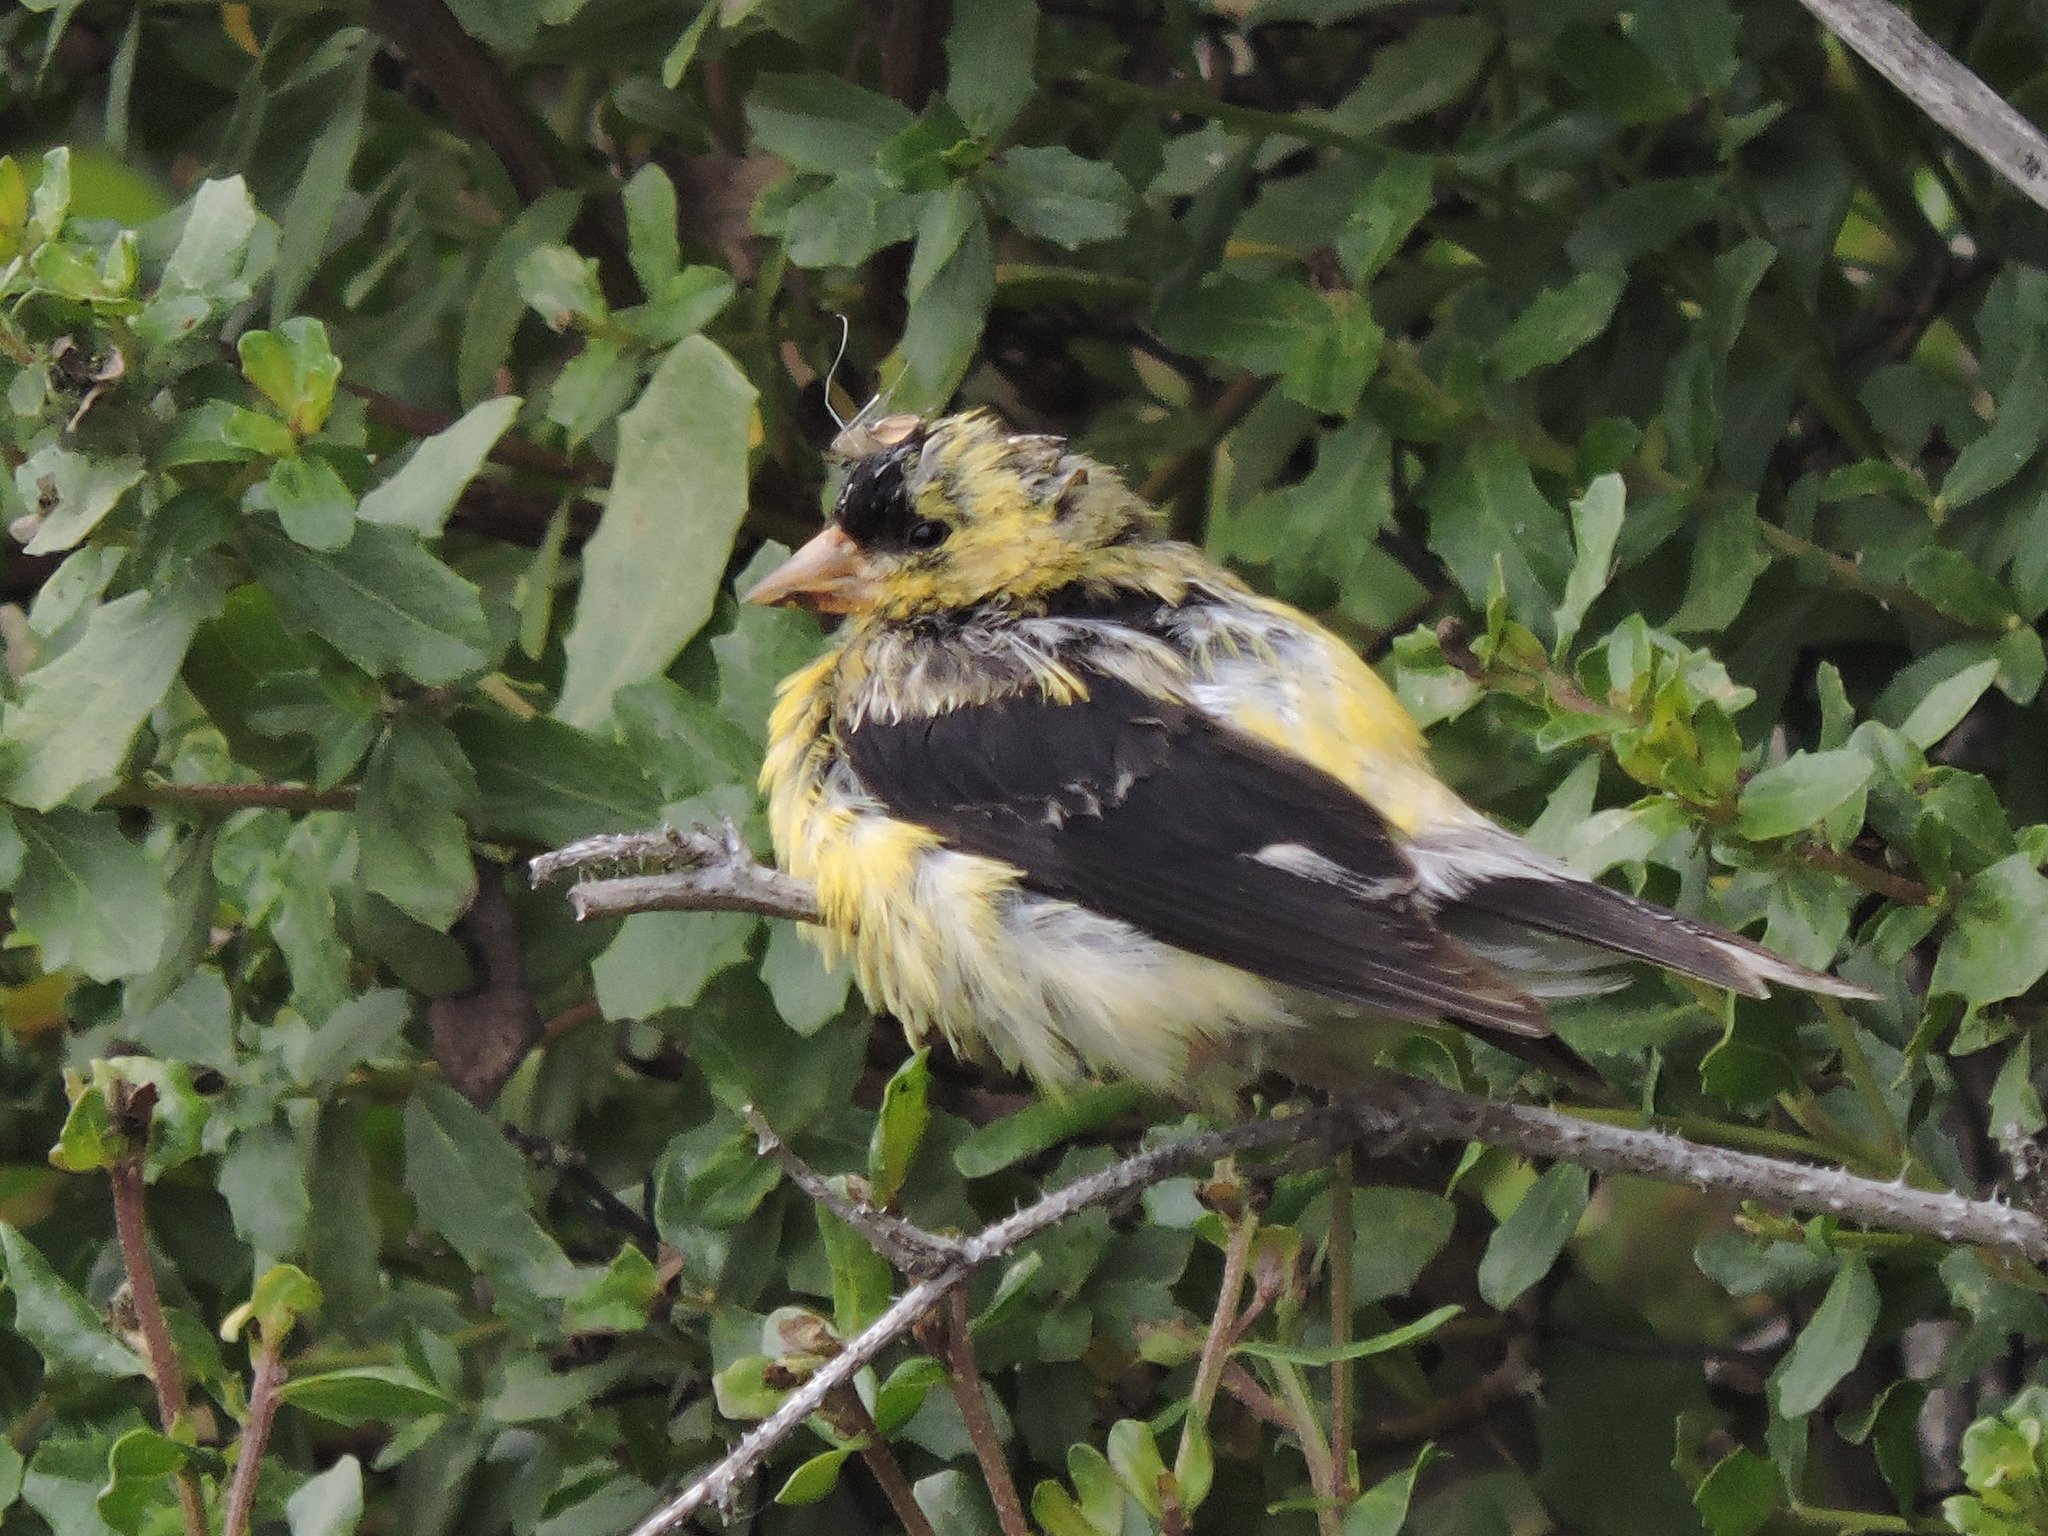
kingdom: Animalia
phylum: Chordata
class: Aves
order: Passeriformes
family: Fringillidae
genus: Spinus
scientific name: Spinus tristis
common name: American goldfinch
